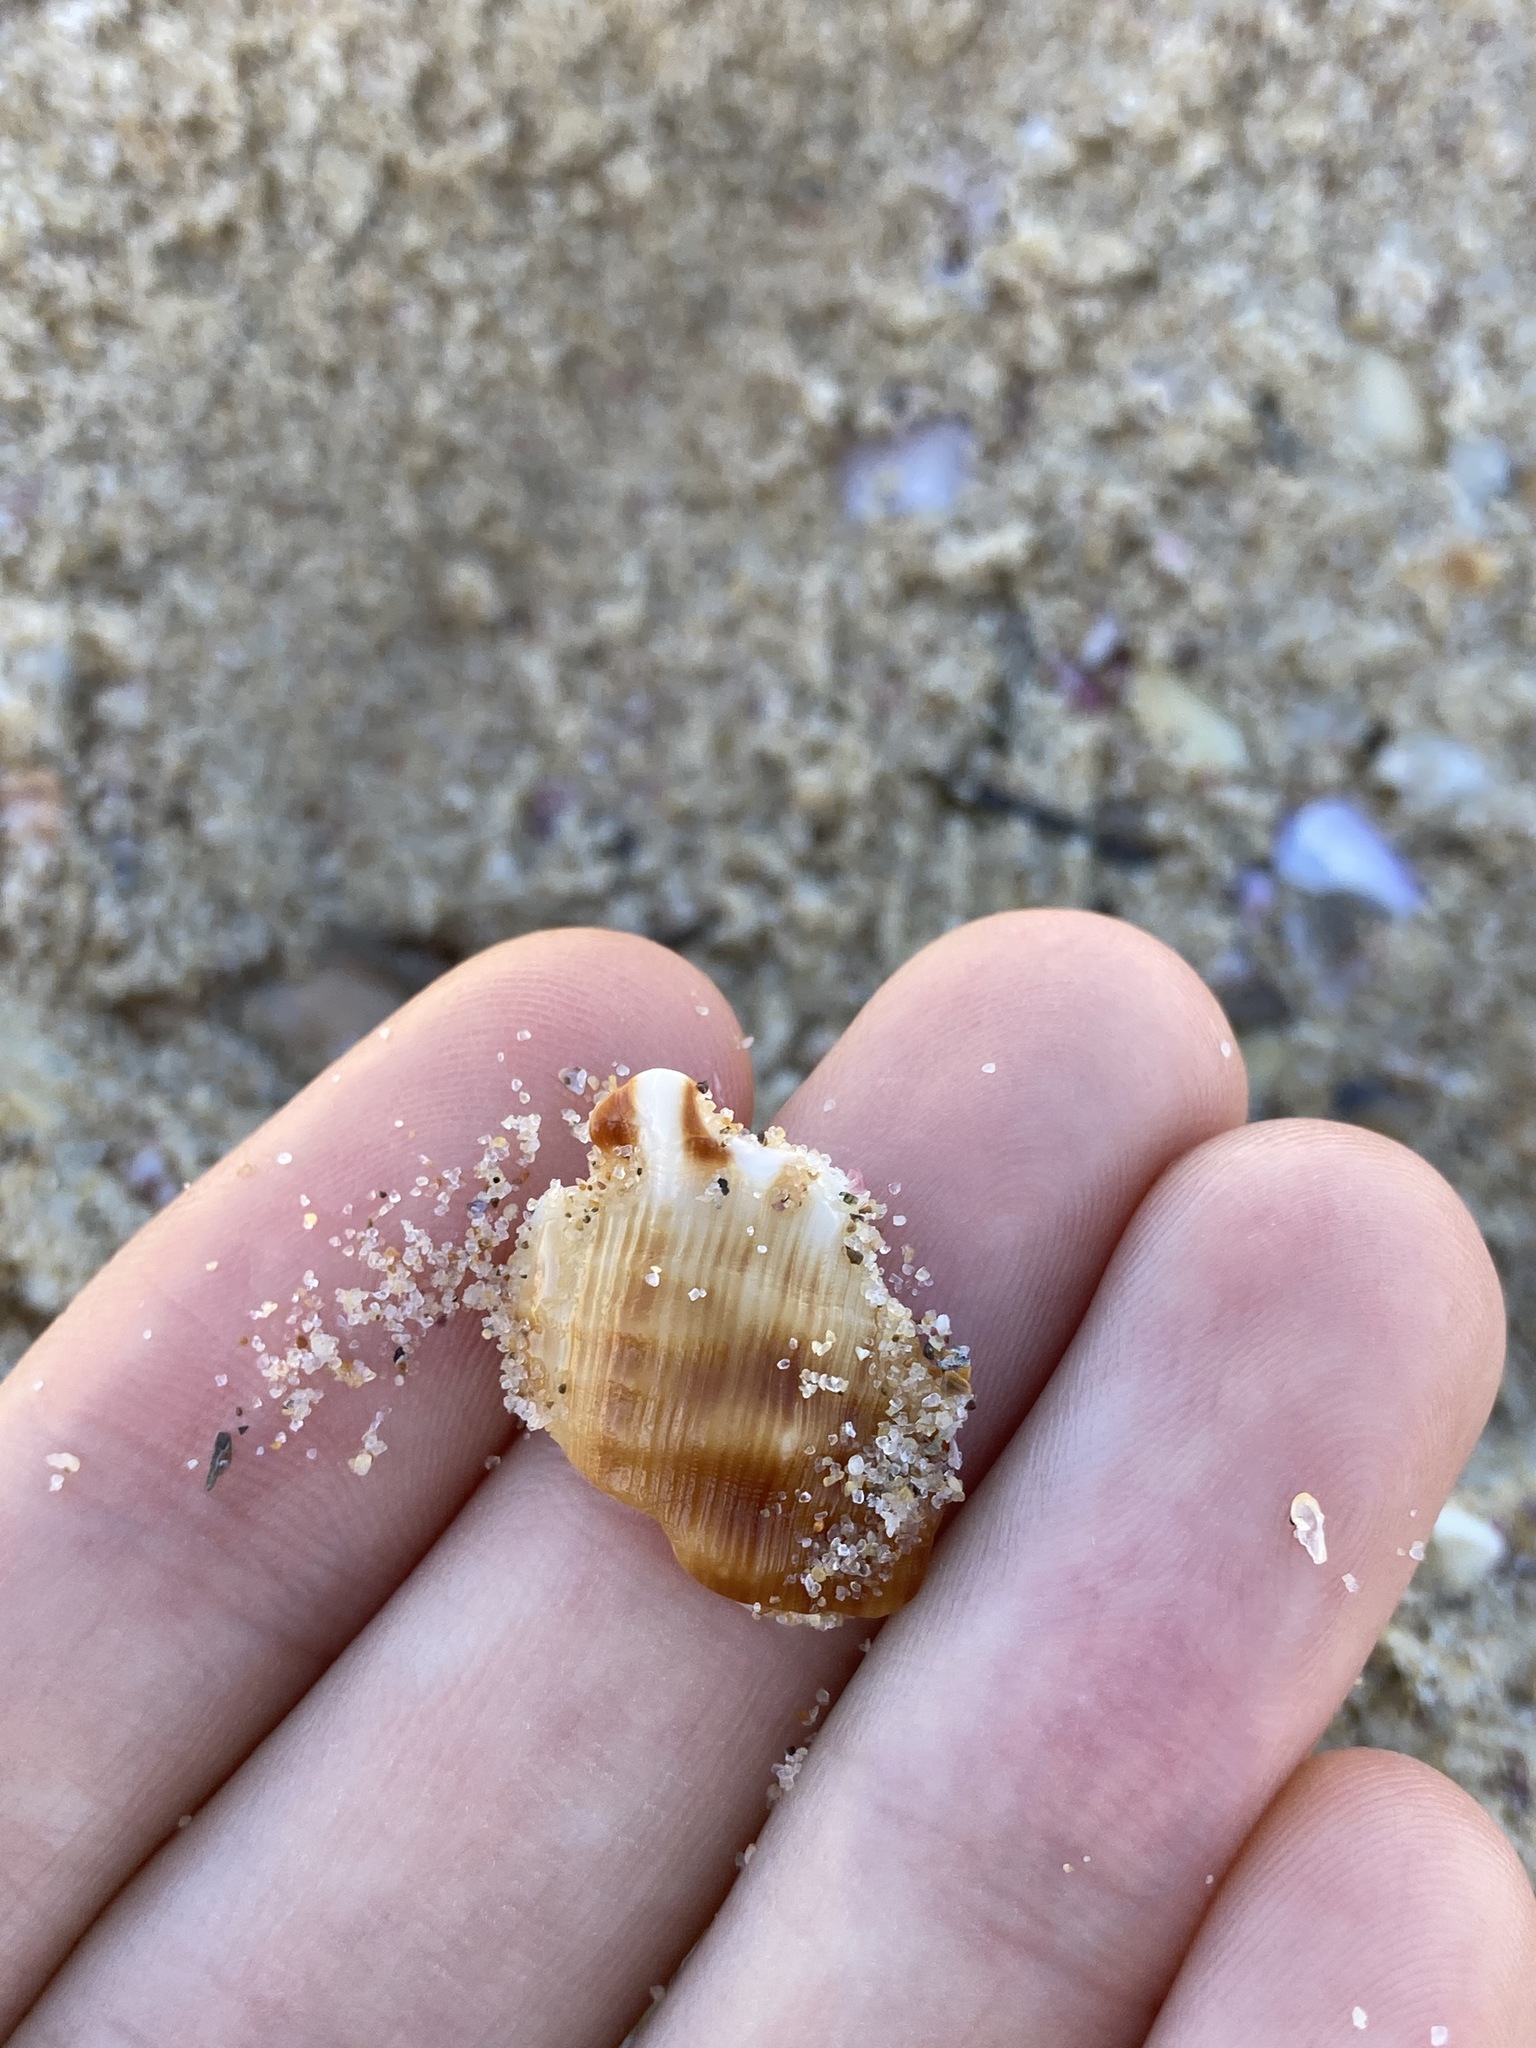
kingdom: Animalia
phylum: Mollusca
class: Gastropoda
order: Littorinimorpha
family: Ranellidae
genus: Ranella
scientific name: Ranella australasia
